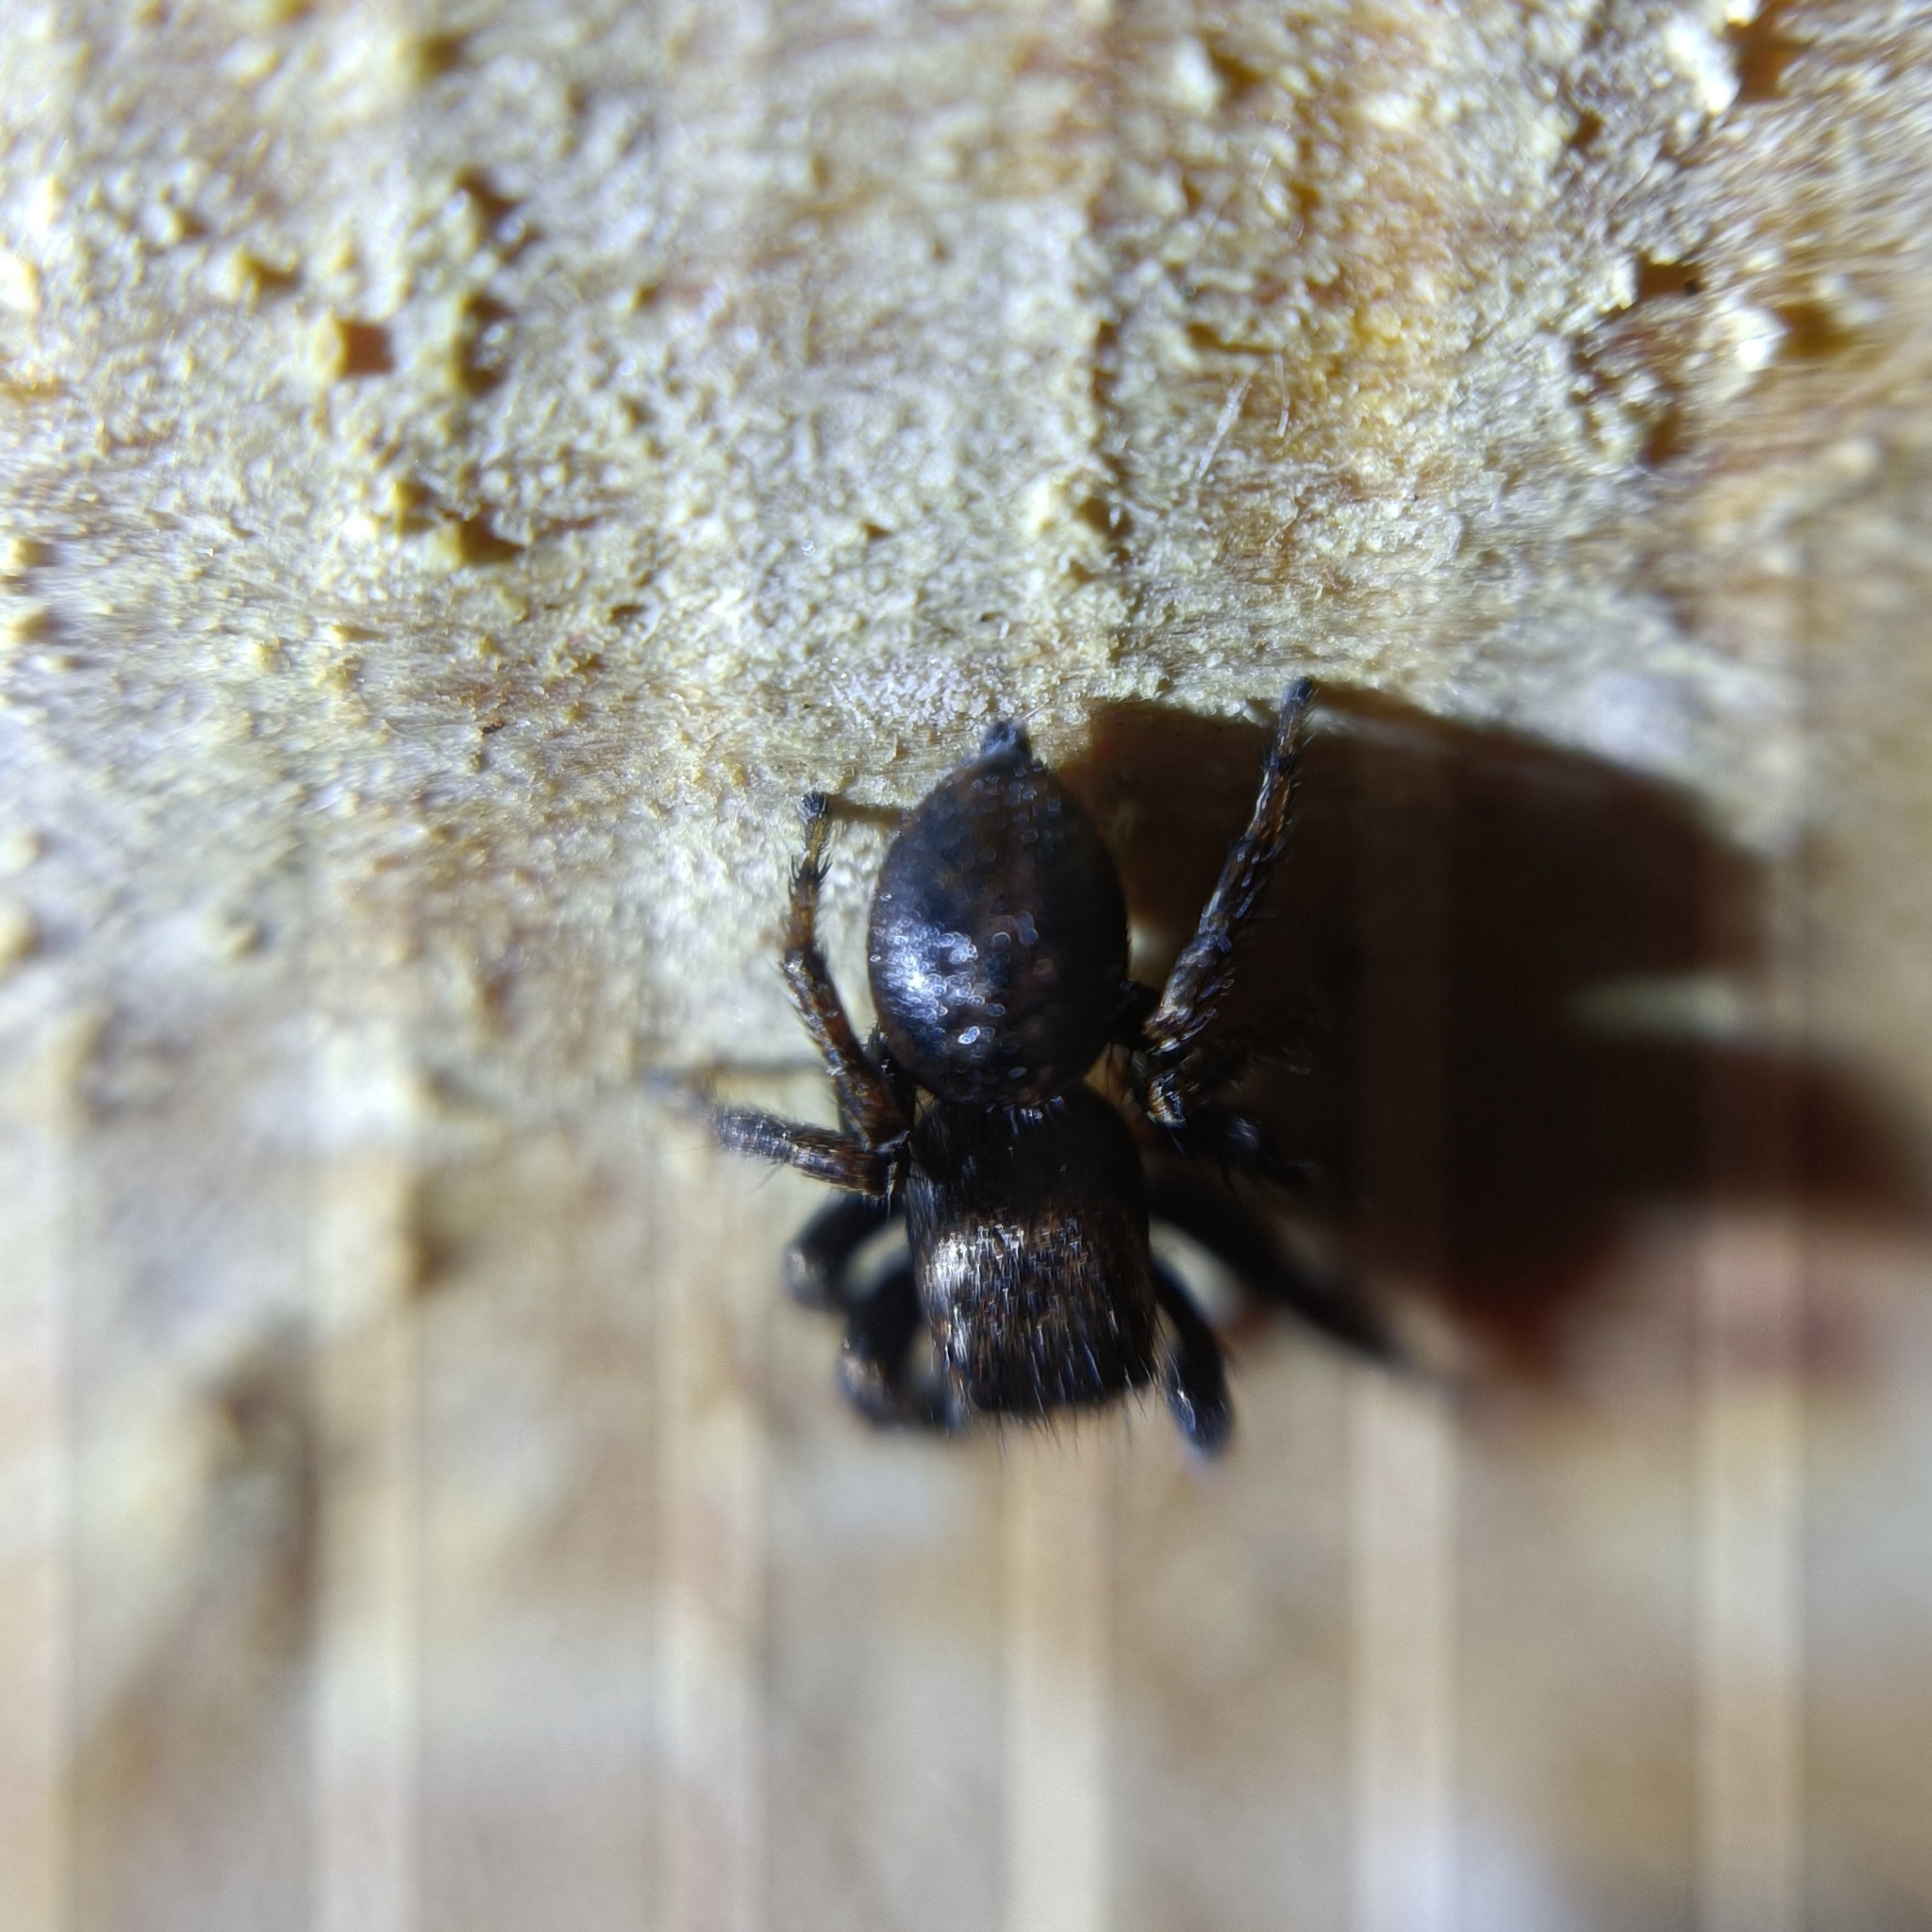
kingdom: Animalia
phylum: Arthropoda
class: Arachnida
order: Araneae
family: Salticidae
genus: Evarcha
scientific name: Evarcha arcuata
